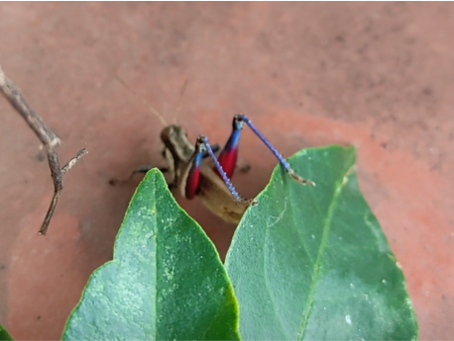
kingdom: Animalia
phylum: Arthropoda
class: Insecta
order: Orthoptera
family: Acrididae
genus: Ronderosia
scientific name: Ronderosia bergii
